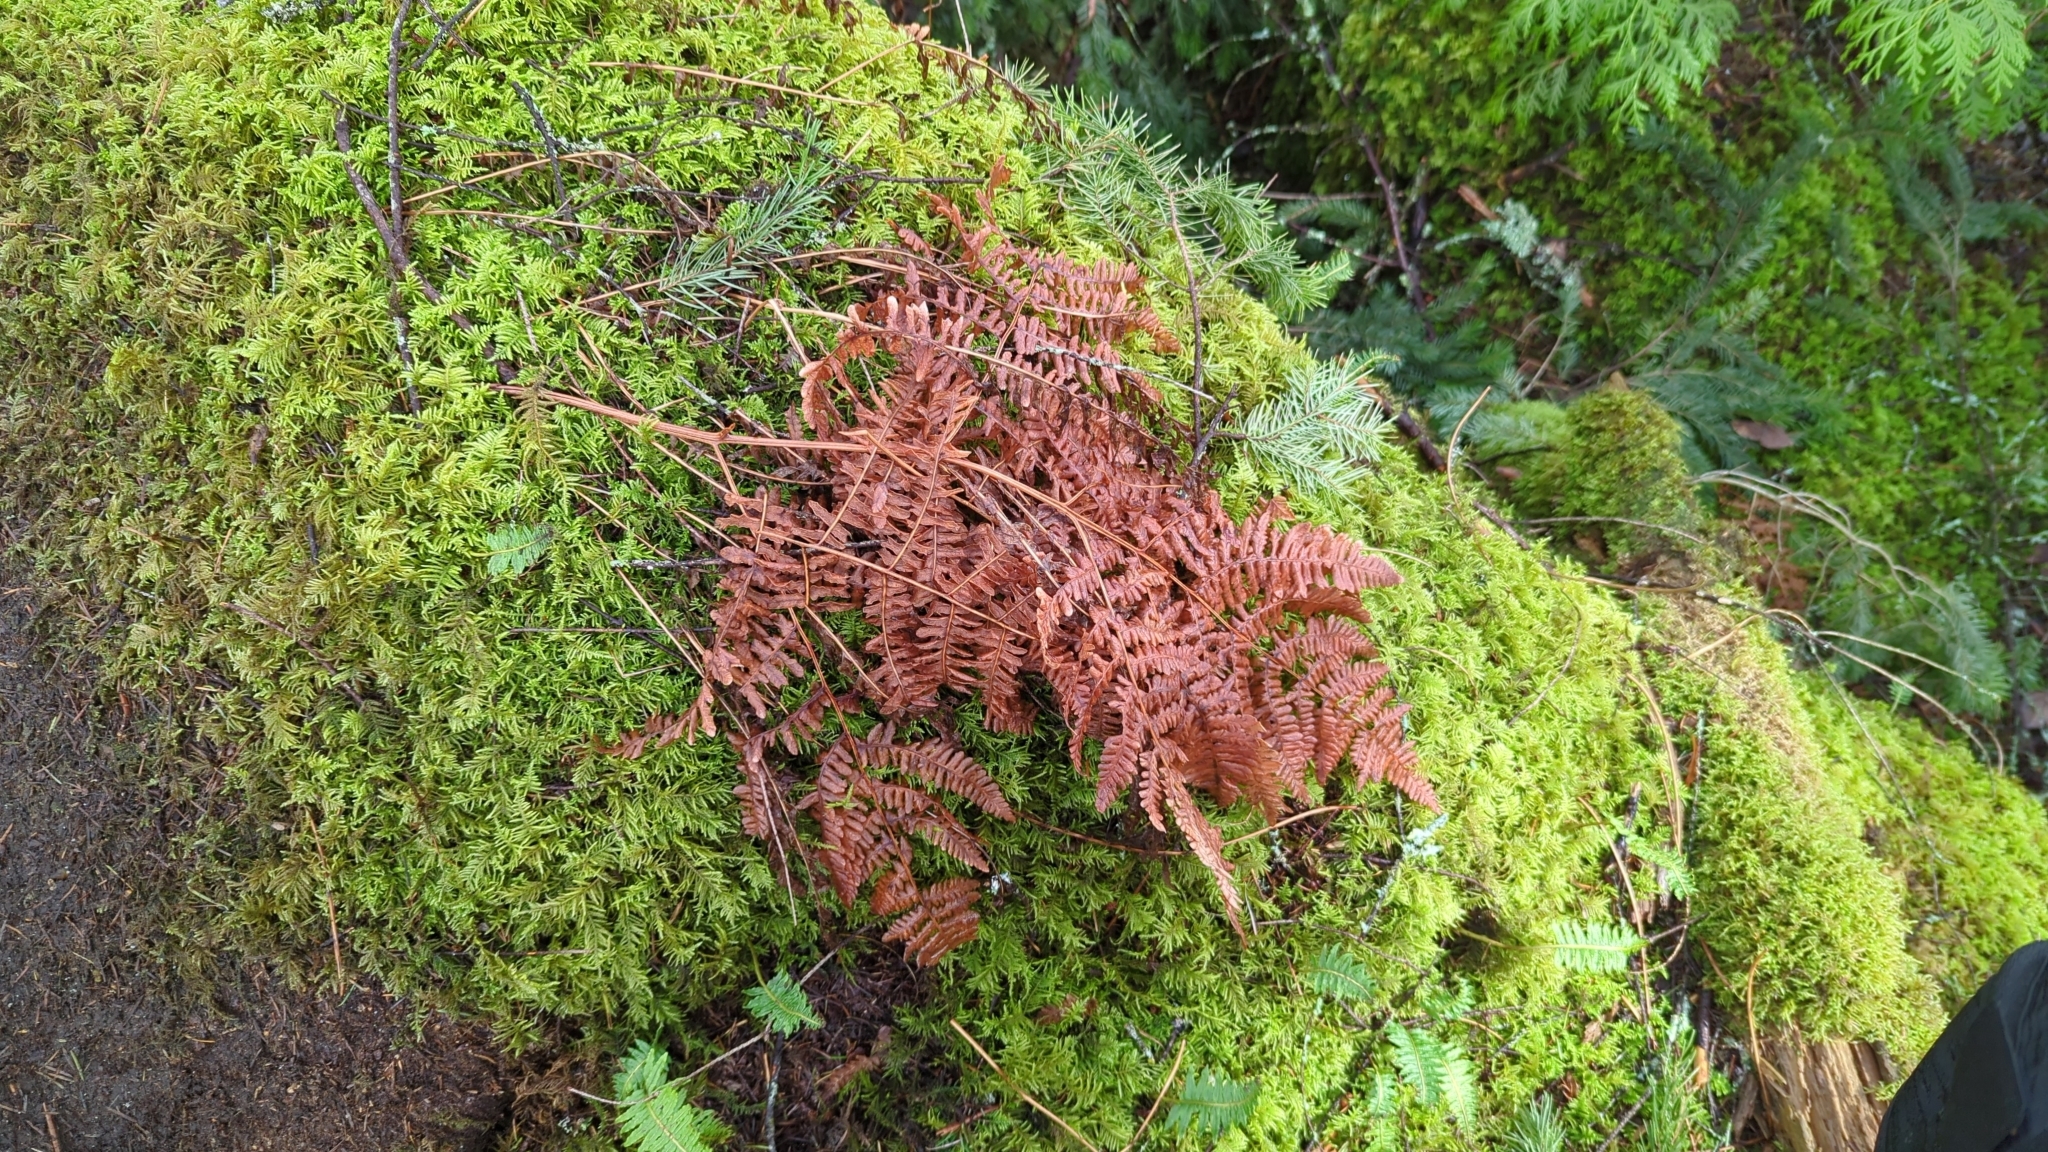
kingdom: Plantae
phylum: Tracheophyta
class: Polypodiopsida
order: Polypodiales
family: Dennstaedtiaceae
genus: Pteridium
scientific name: Pteridium aquilinum
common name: Bracken
